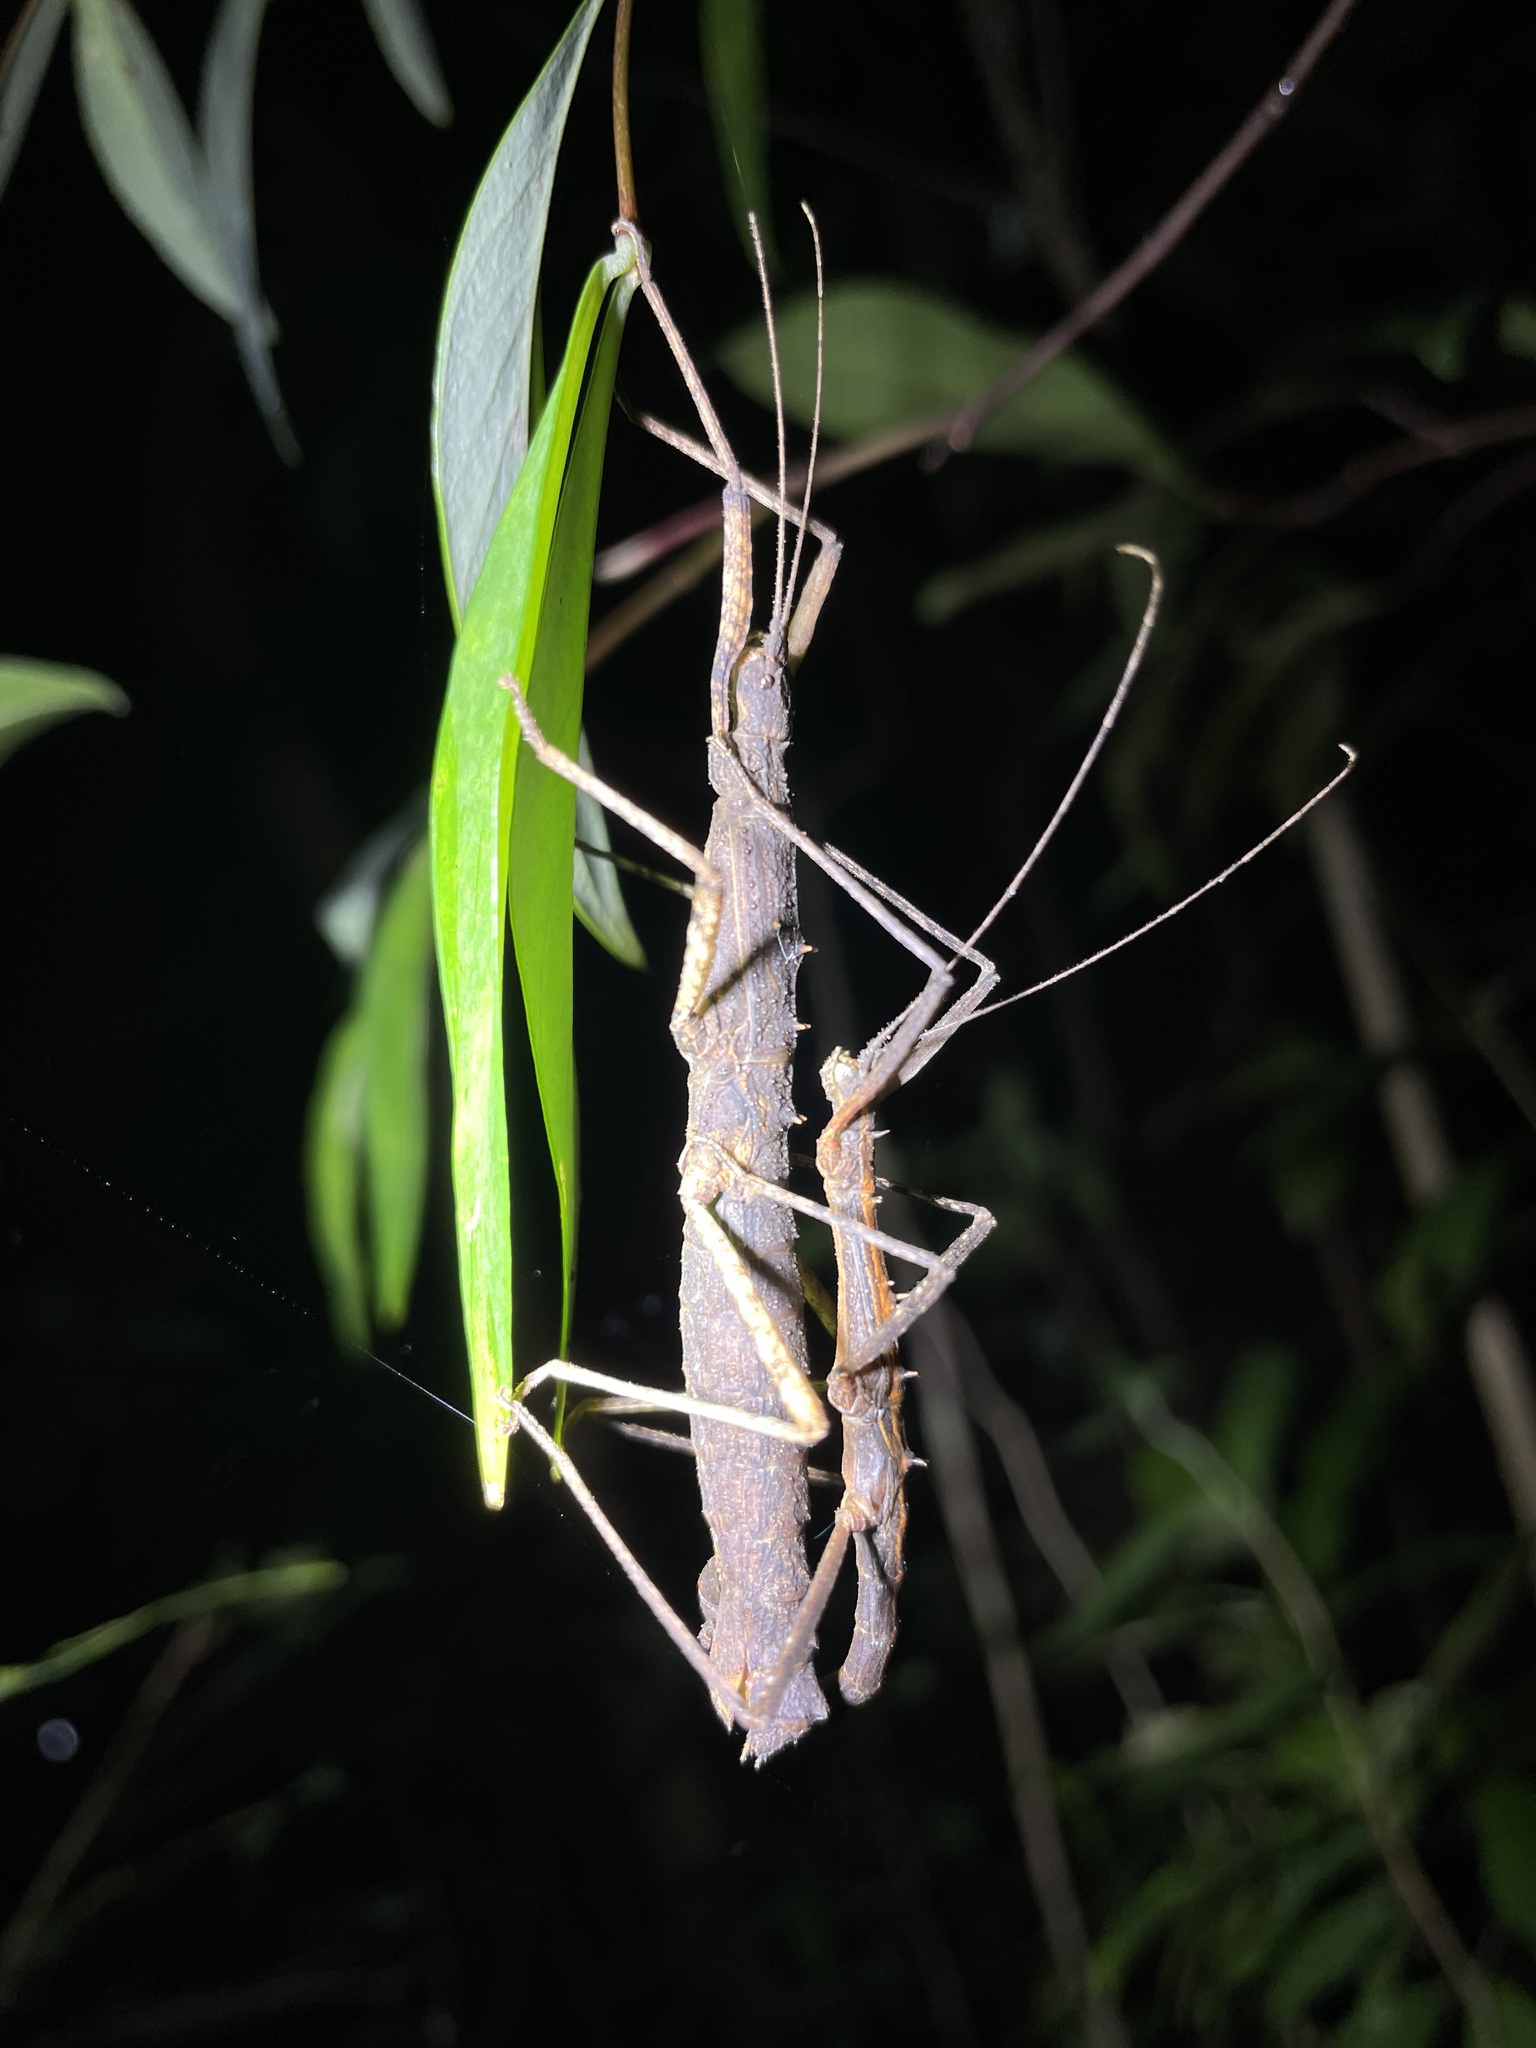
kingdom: Animalia
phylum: Arthropoda
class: Insecta
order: Phasmida
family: Lonchodidae
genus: Neohirasea
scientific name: Neohirasea hongkongensis
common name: Hong kong spiny stick insect
